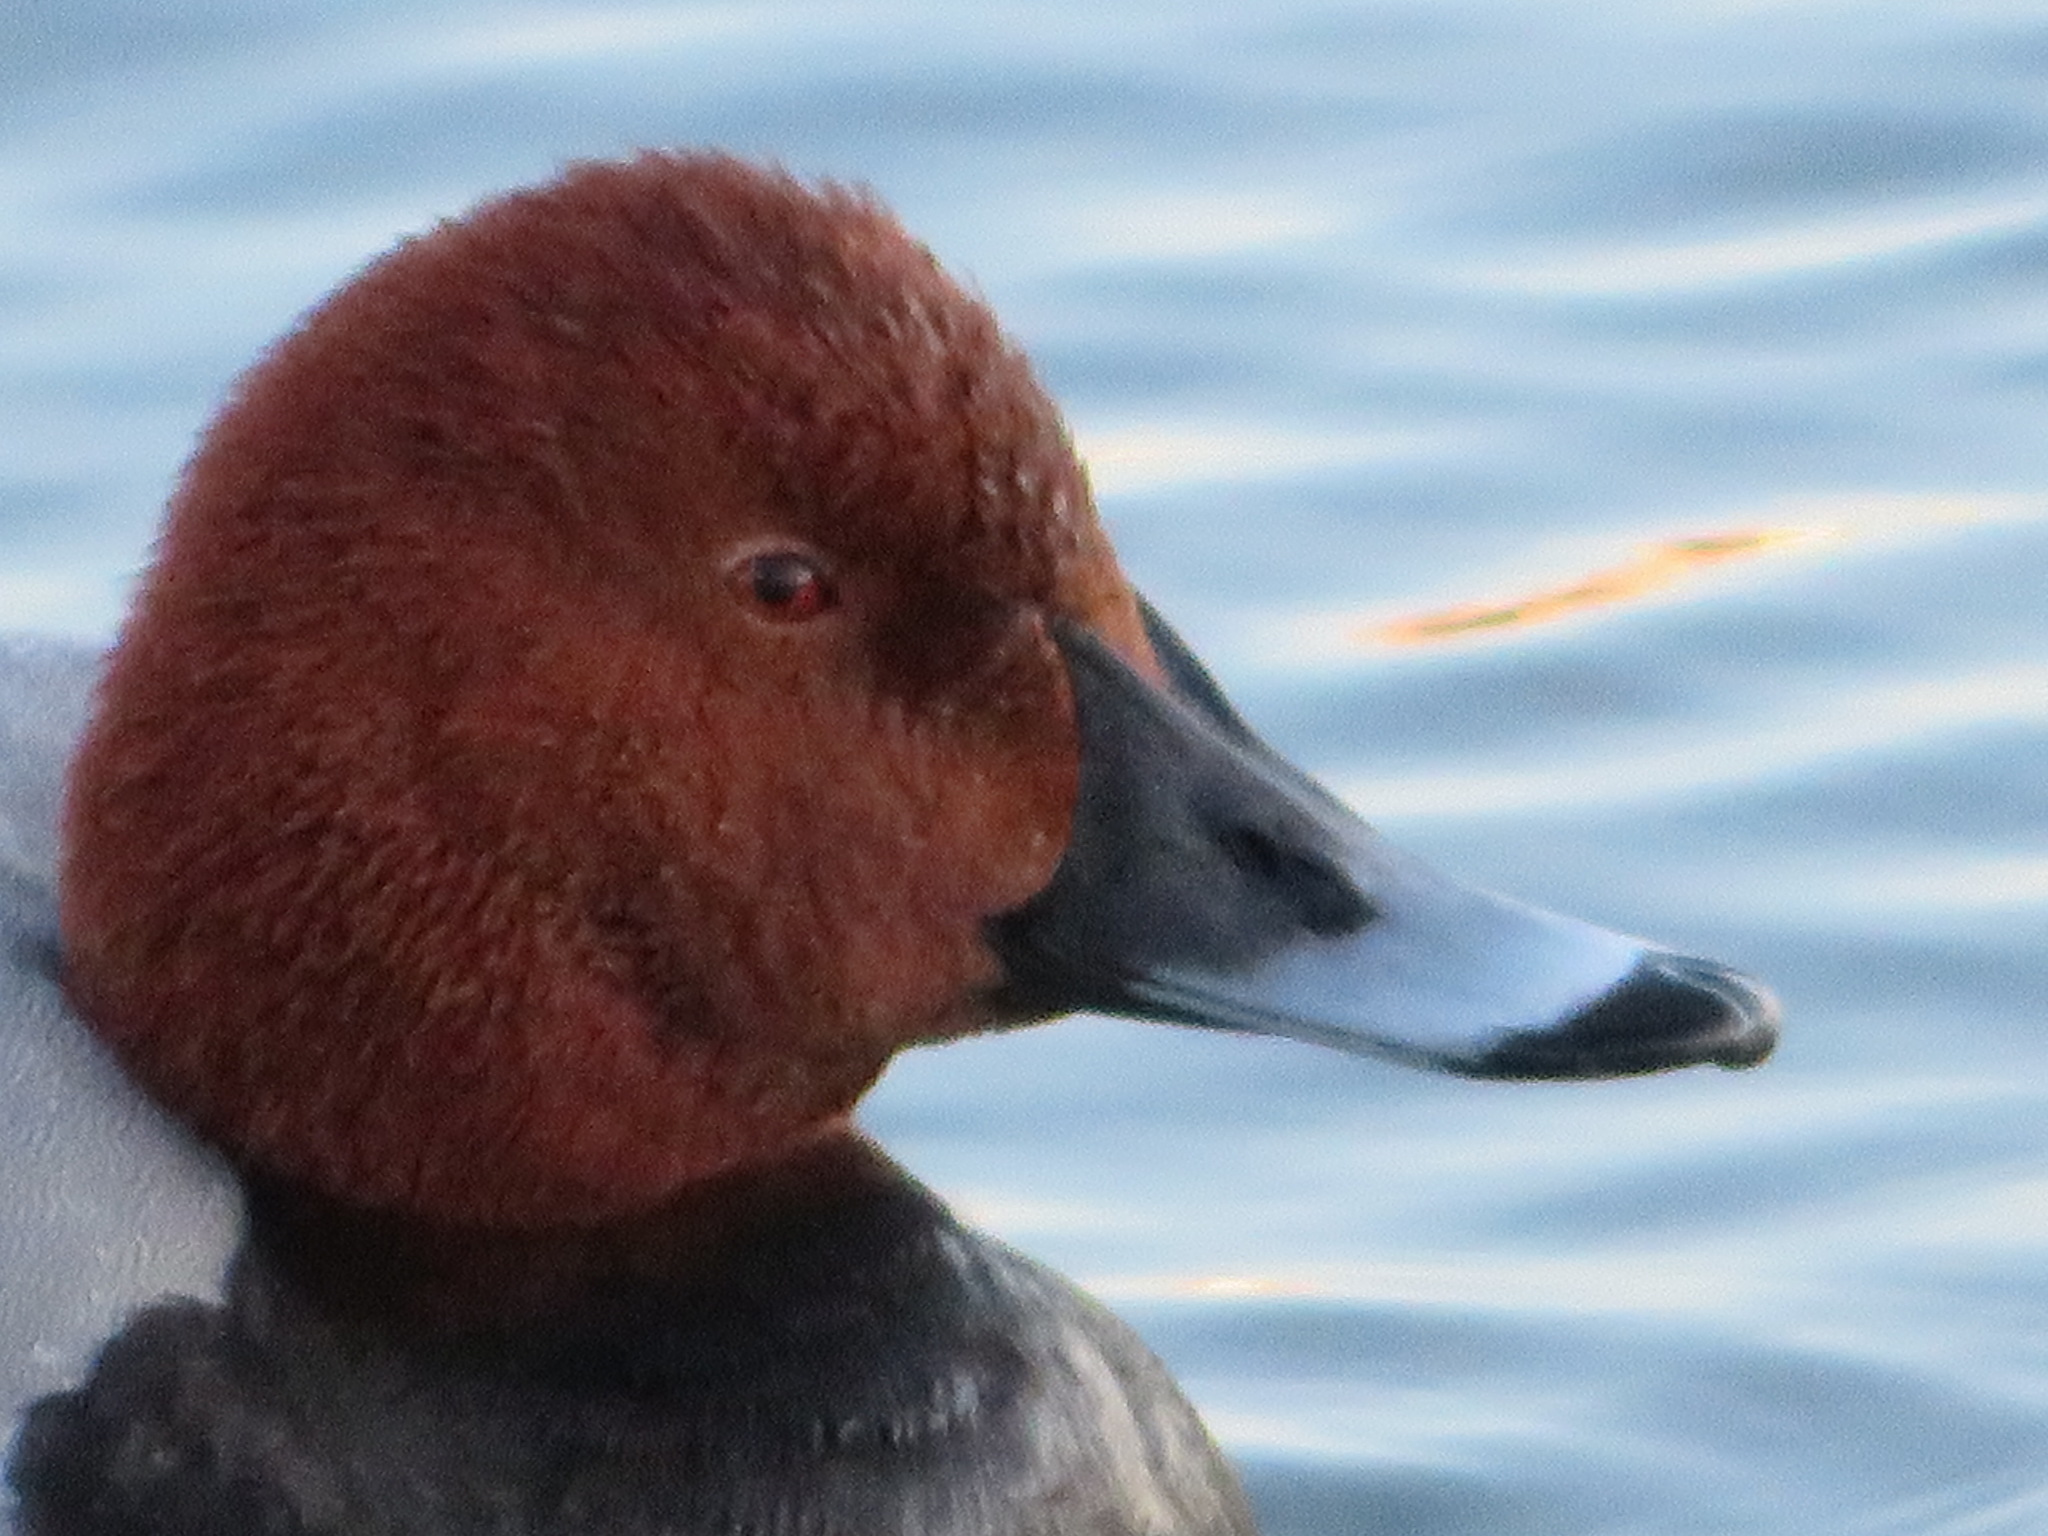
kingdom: Animalia
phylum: Chordata
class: Aves
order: Anseriformes
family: Anatidae
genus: Aythya
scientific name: Aythya ferina
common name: Common pochard
